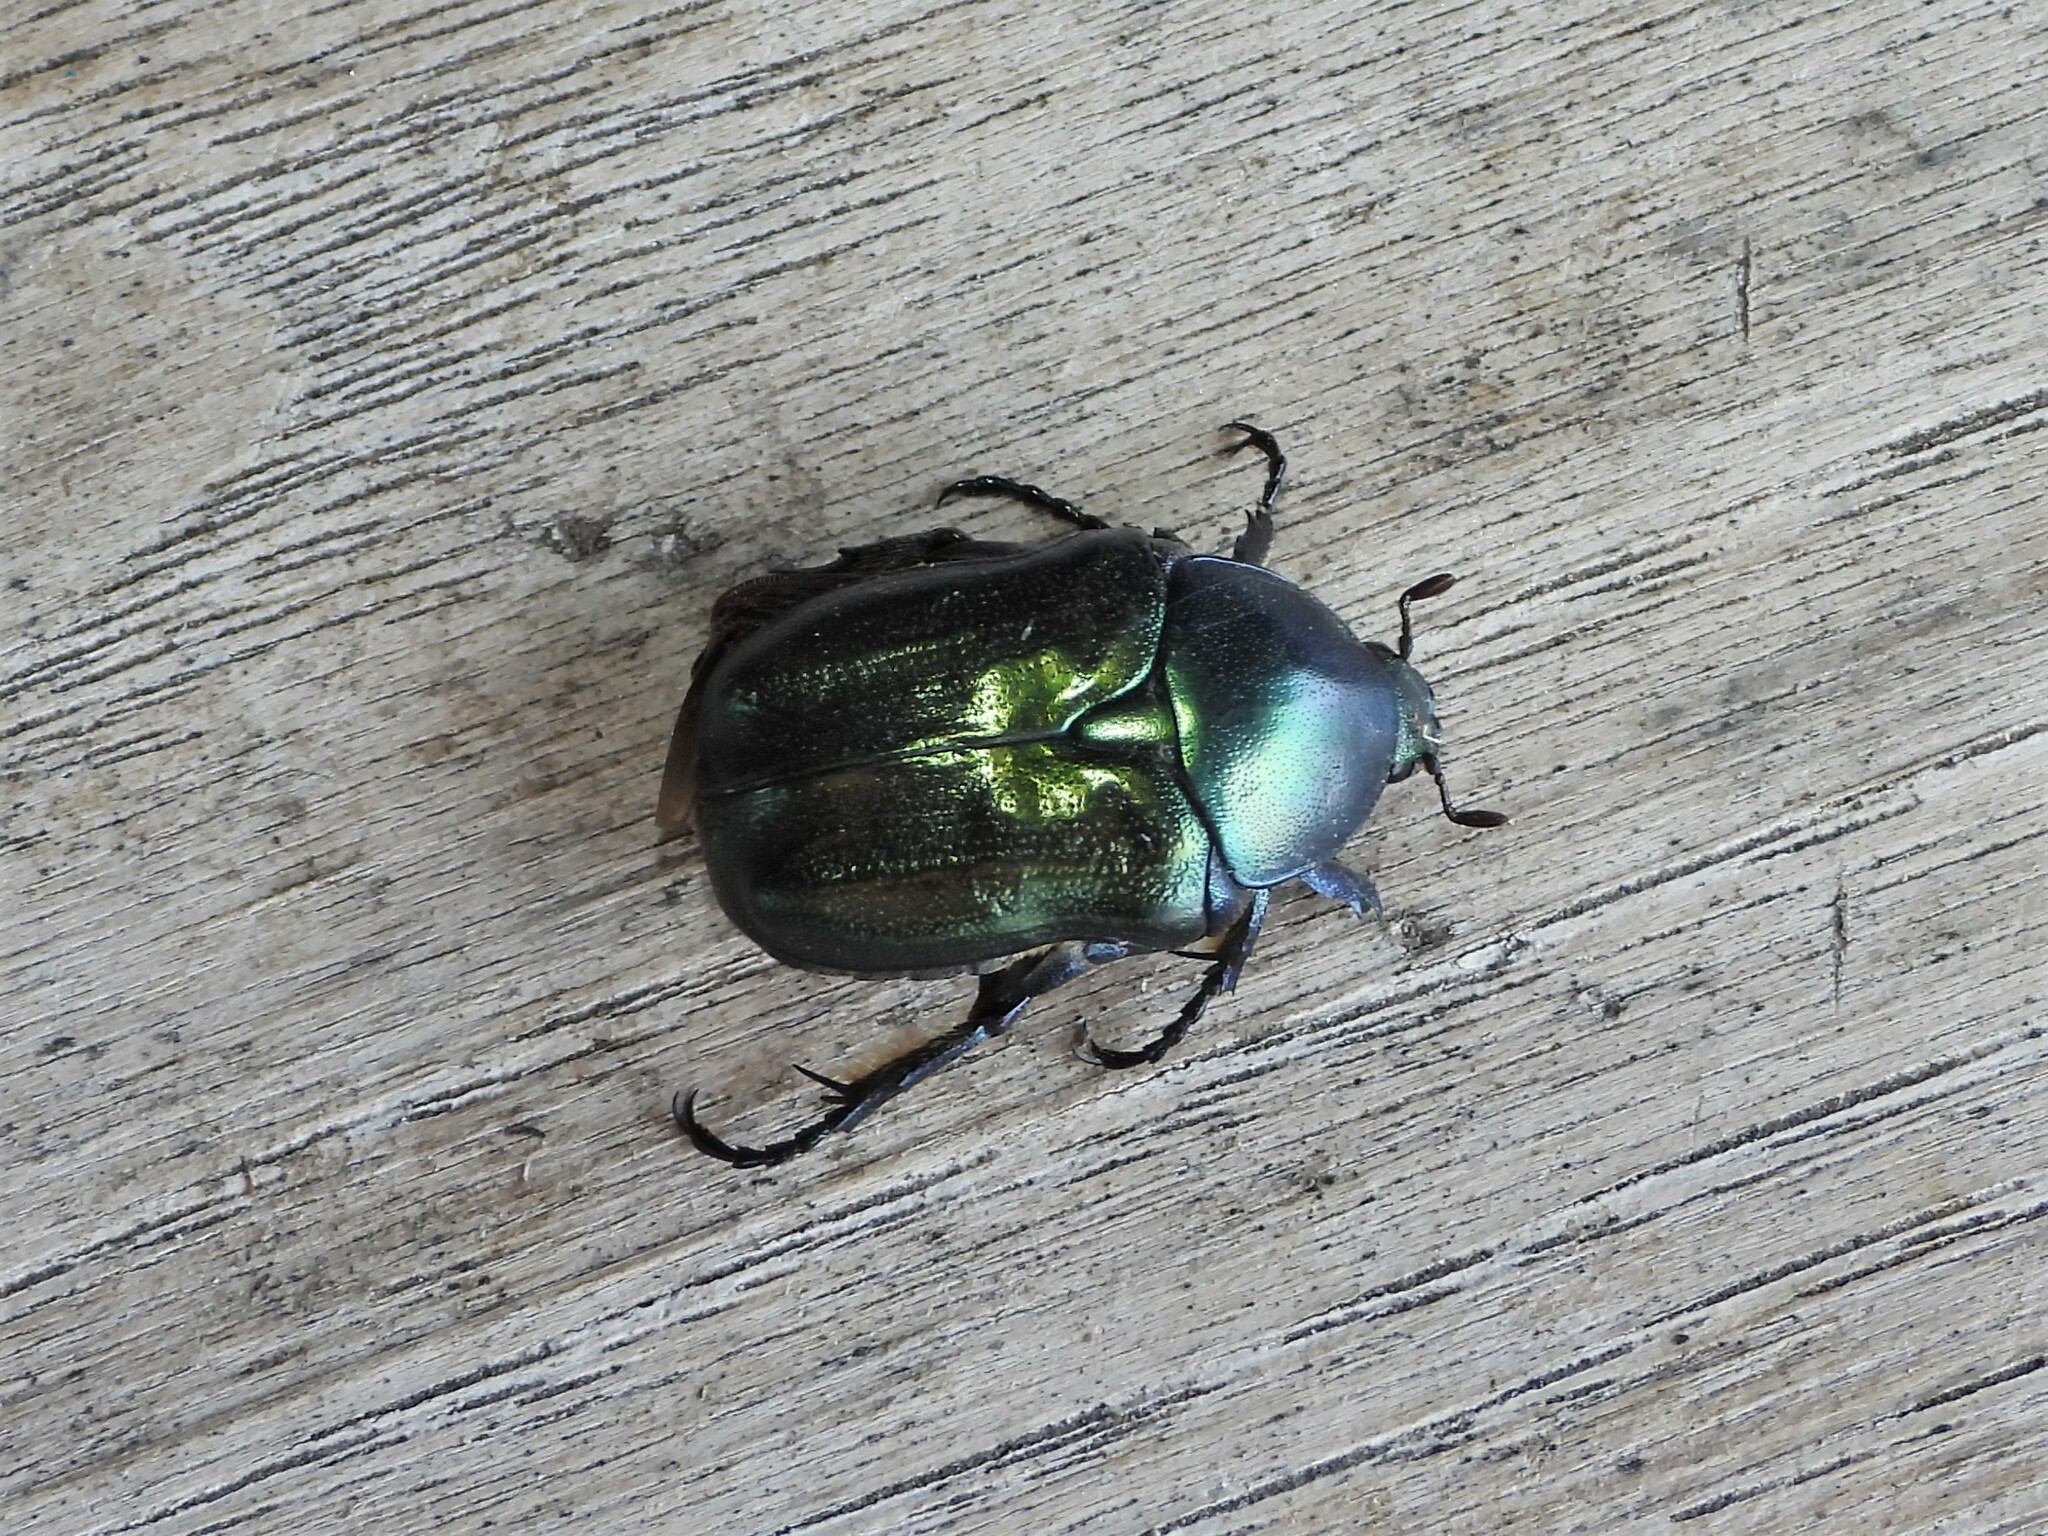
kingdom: Animalia
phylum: Arthropoda
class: Insecta
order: Coleoptera
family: Scarabaeidae
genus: Protaetia
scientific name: Protaetia angustata
